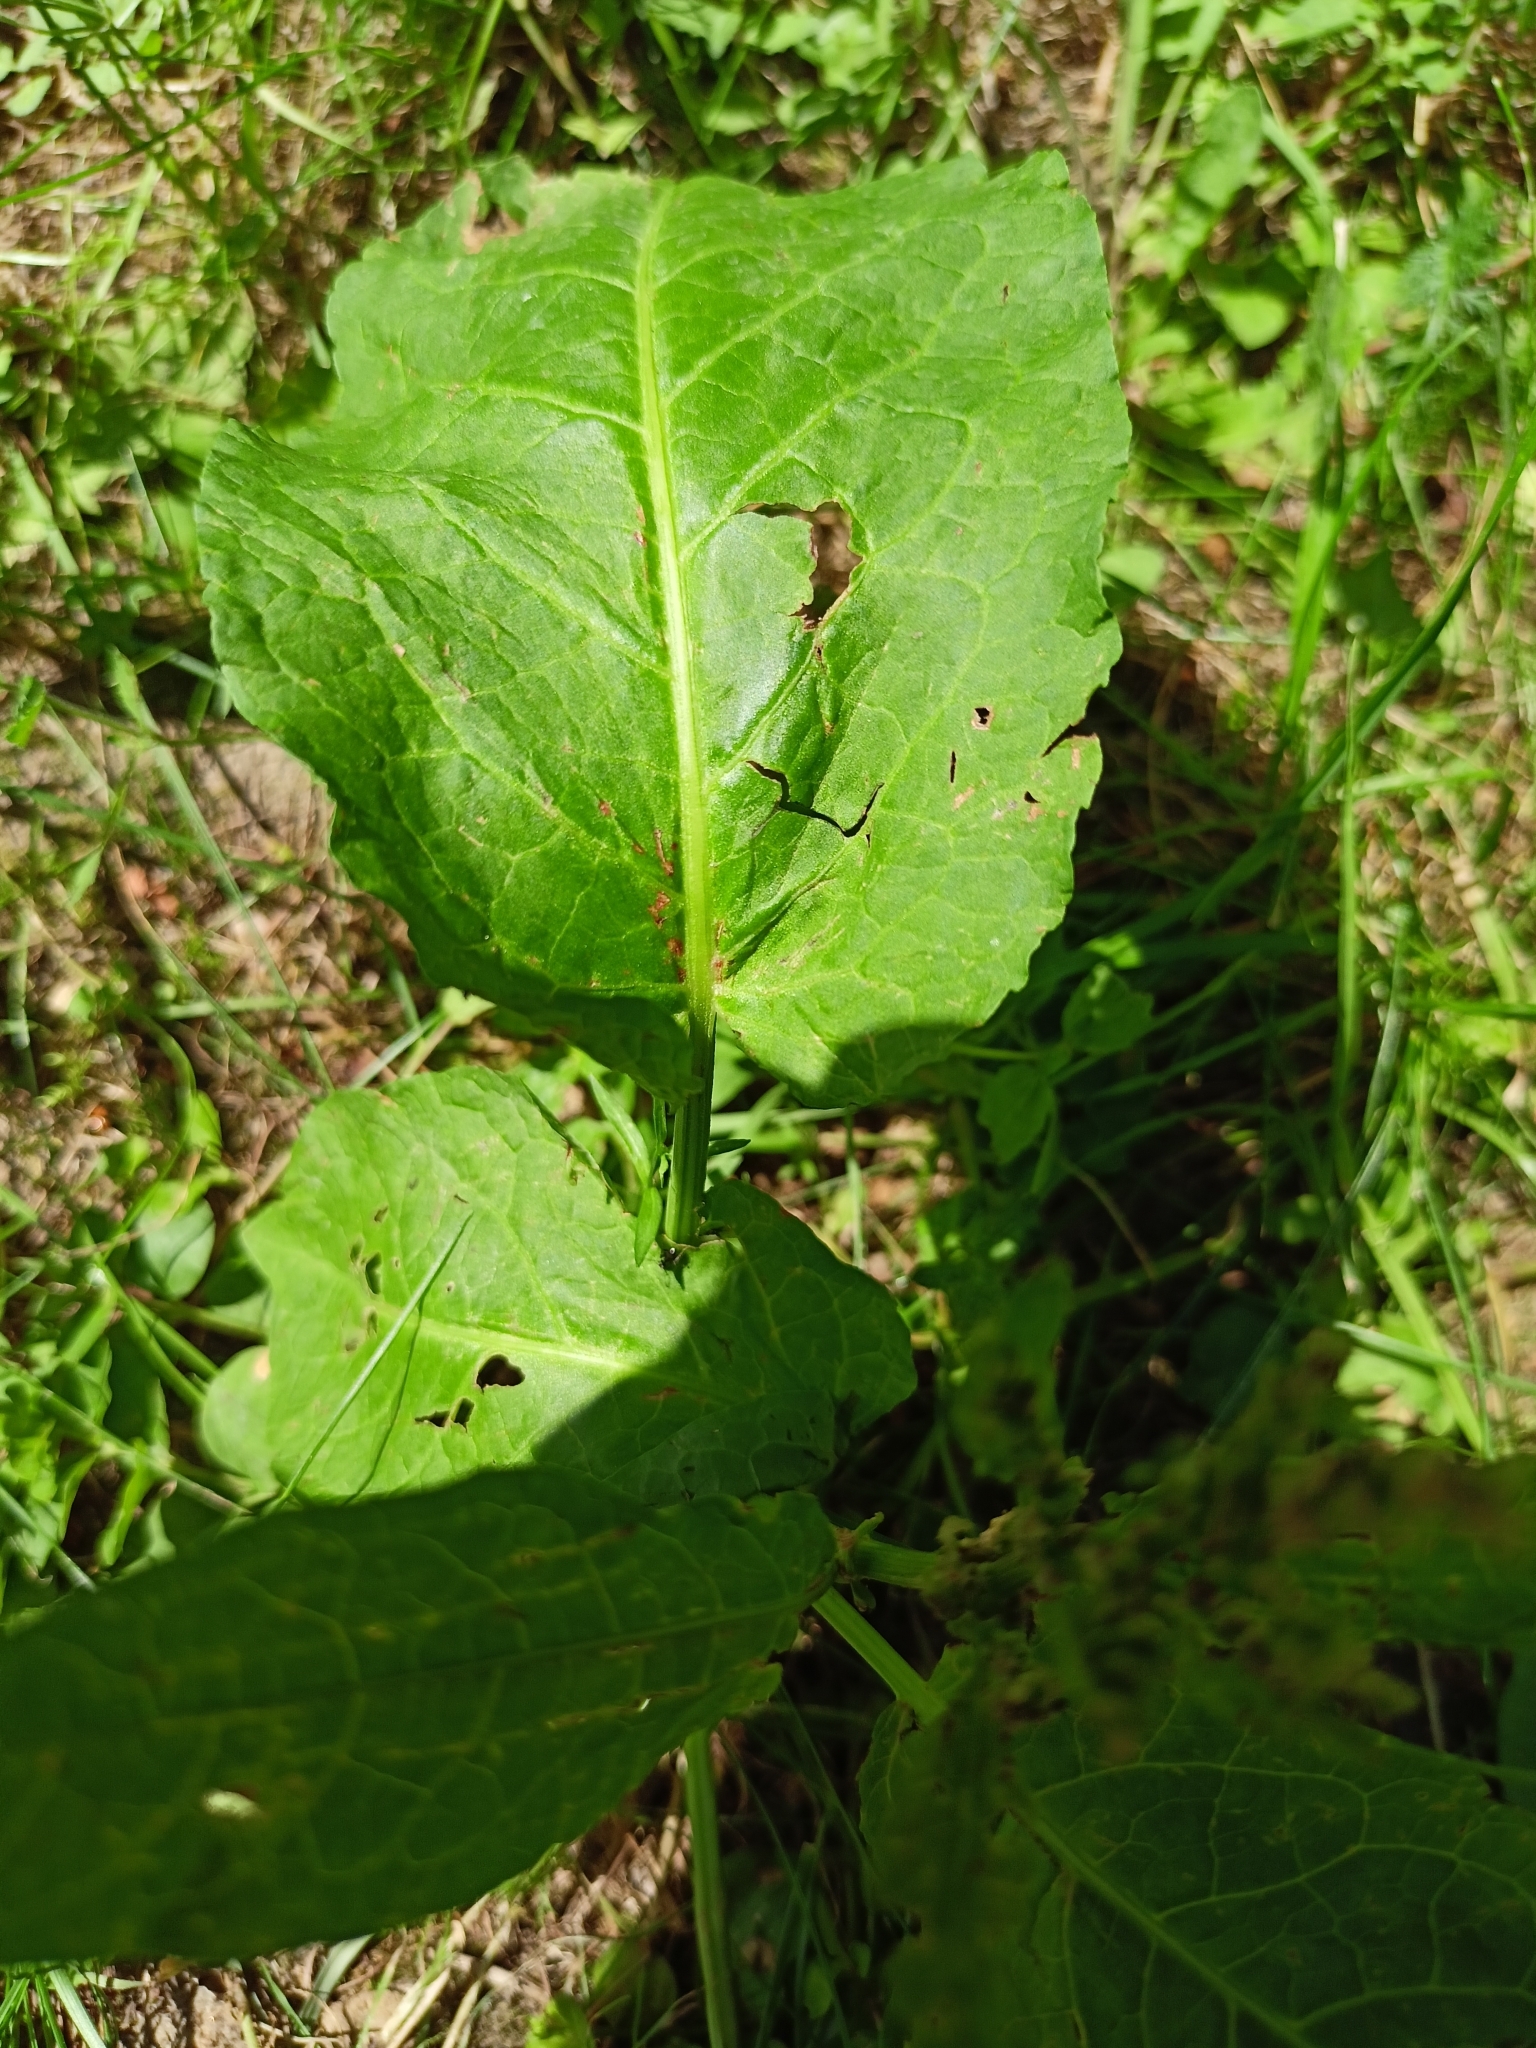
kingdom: Plantae
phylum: Tracheophyta
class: Magnoliopsida
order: Caryophyllales
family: Polygonaceae
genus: Rumex
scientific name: Rumex obtusifolius
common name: Bitter dock
